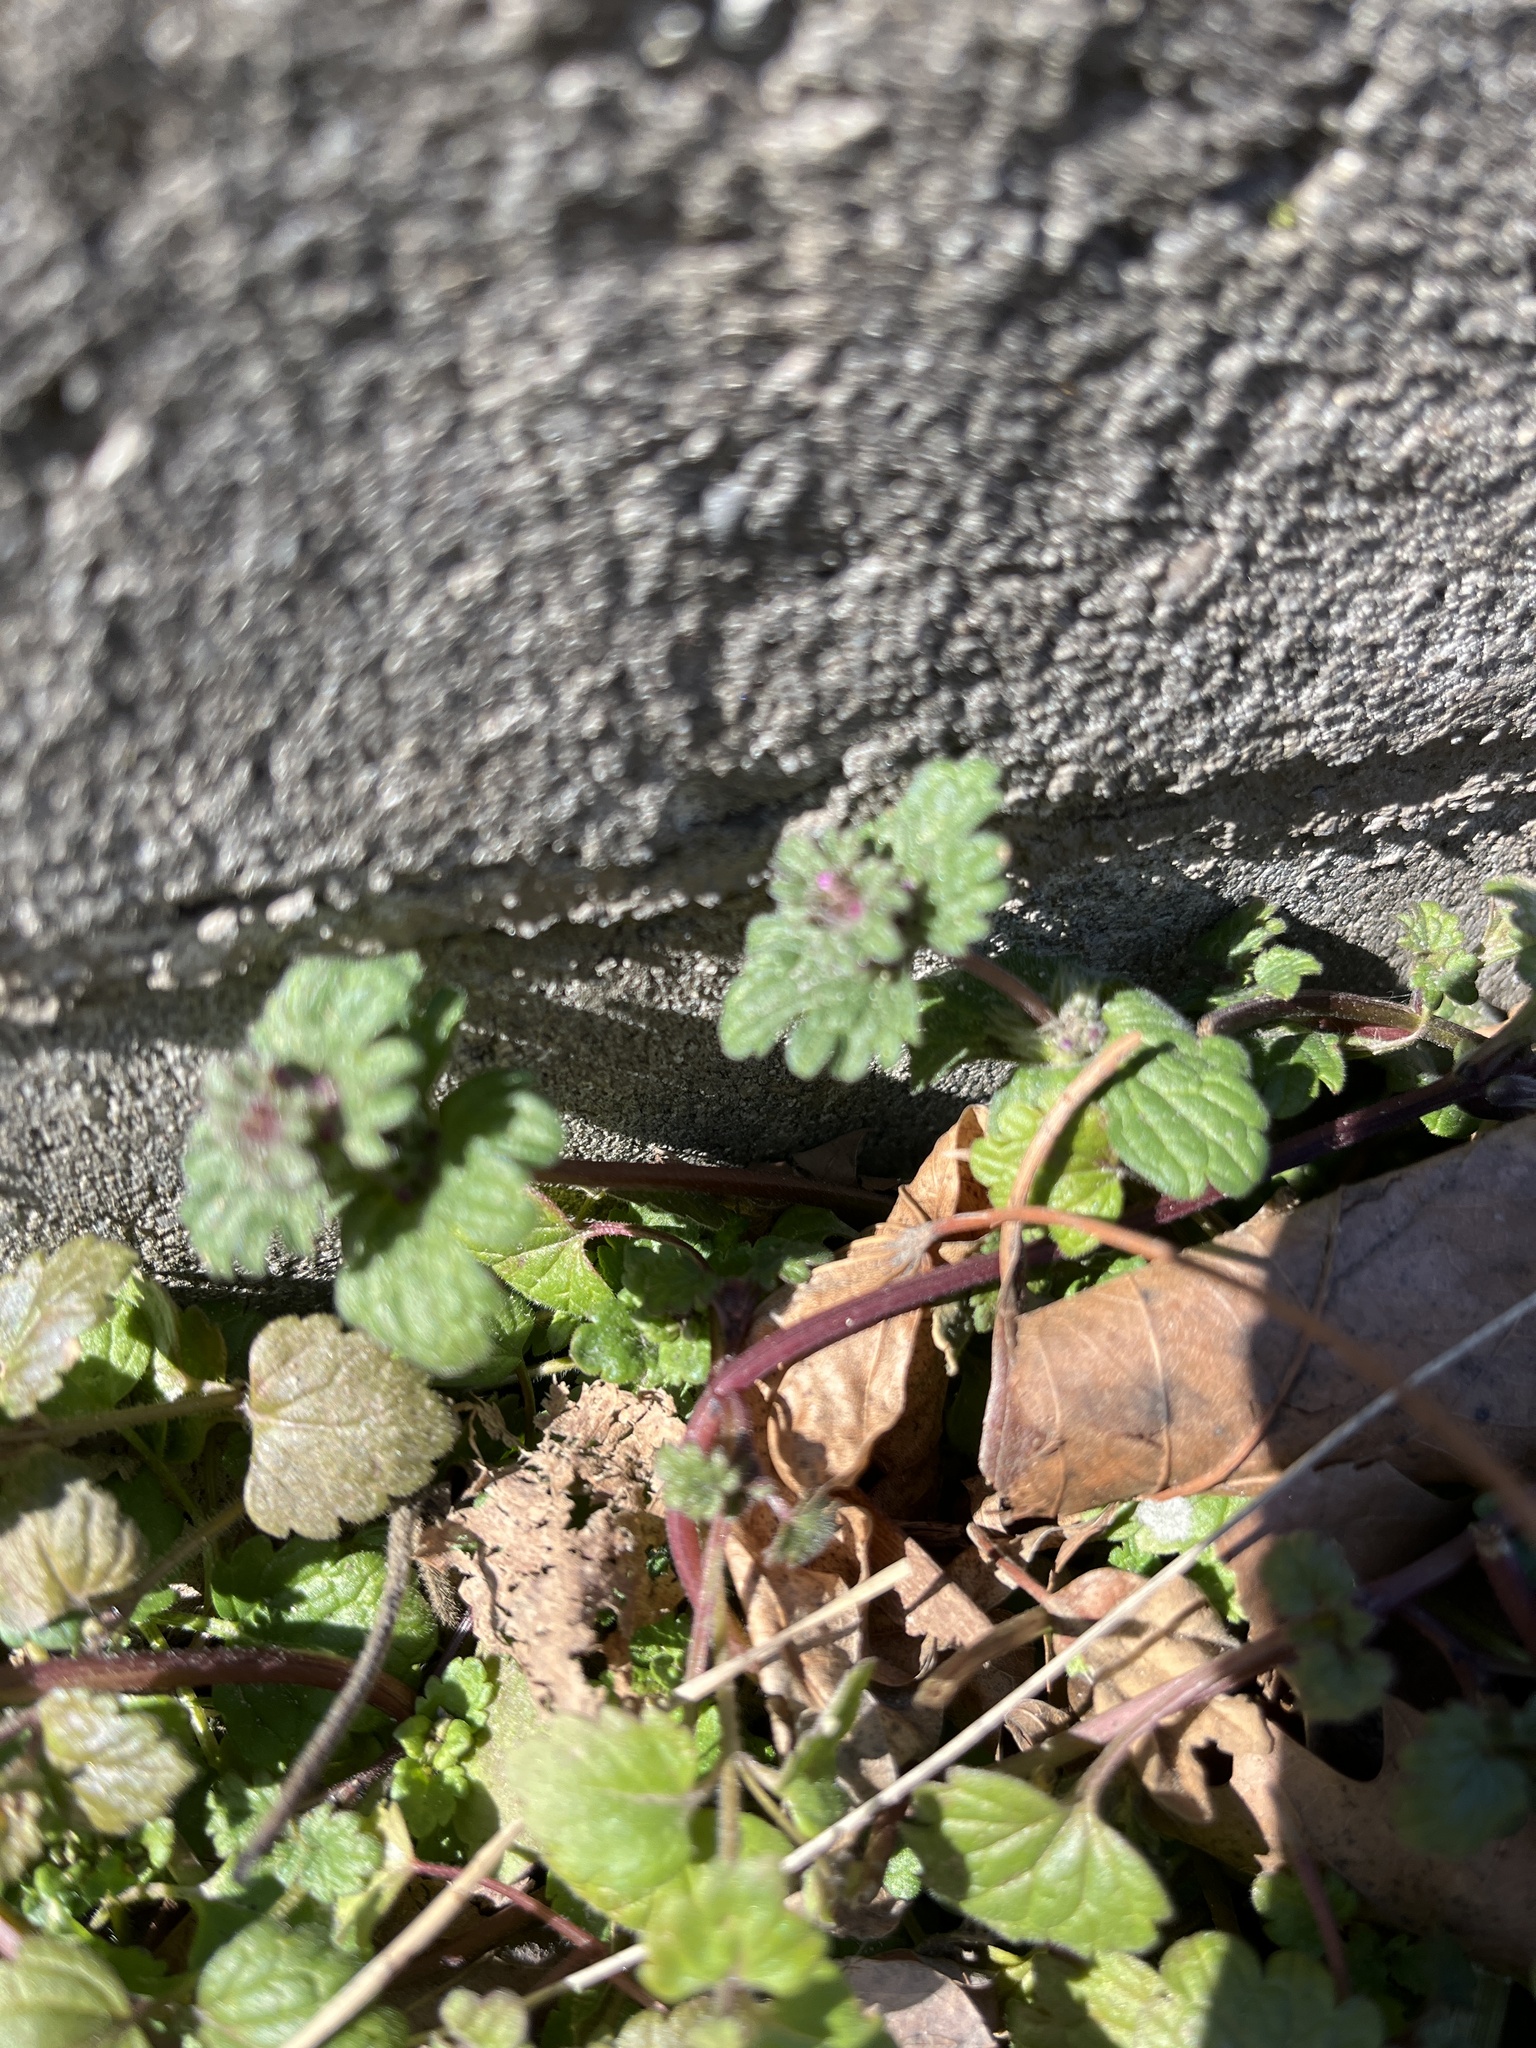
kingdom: Plantae
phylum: Tracheophyta
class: Magnoliopsida
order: Lamiales
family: Lamiaceae
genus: Lamium
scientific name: Lamium amplexicaule
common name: Henbit dead-nettle
